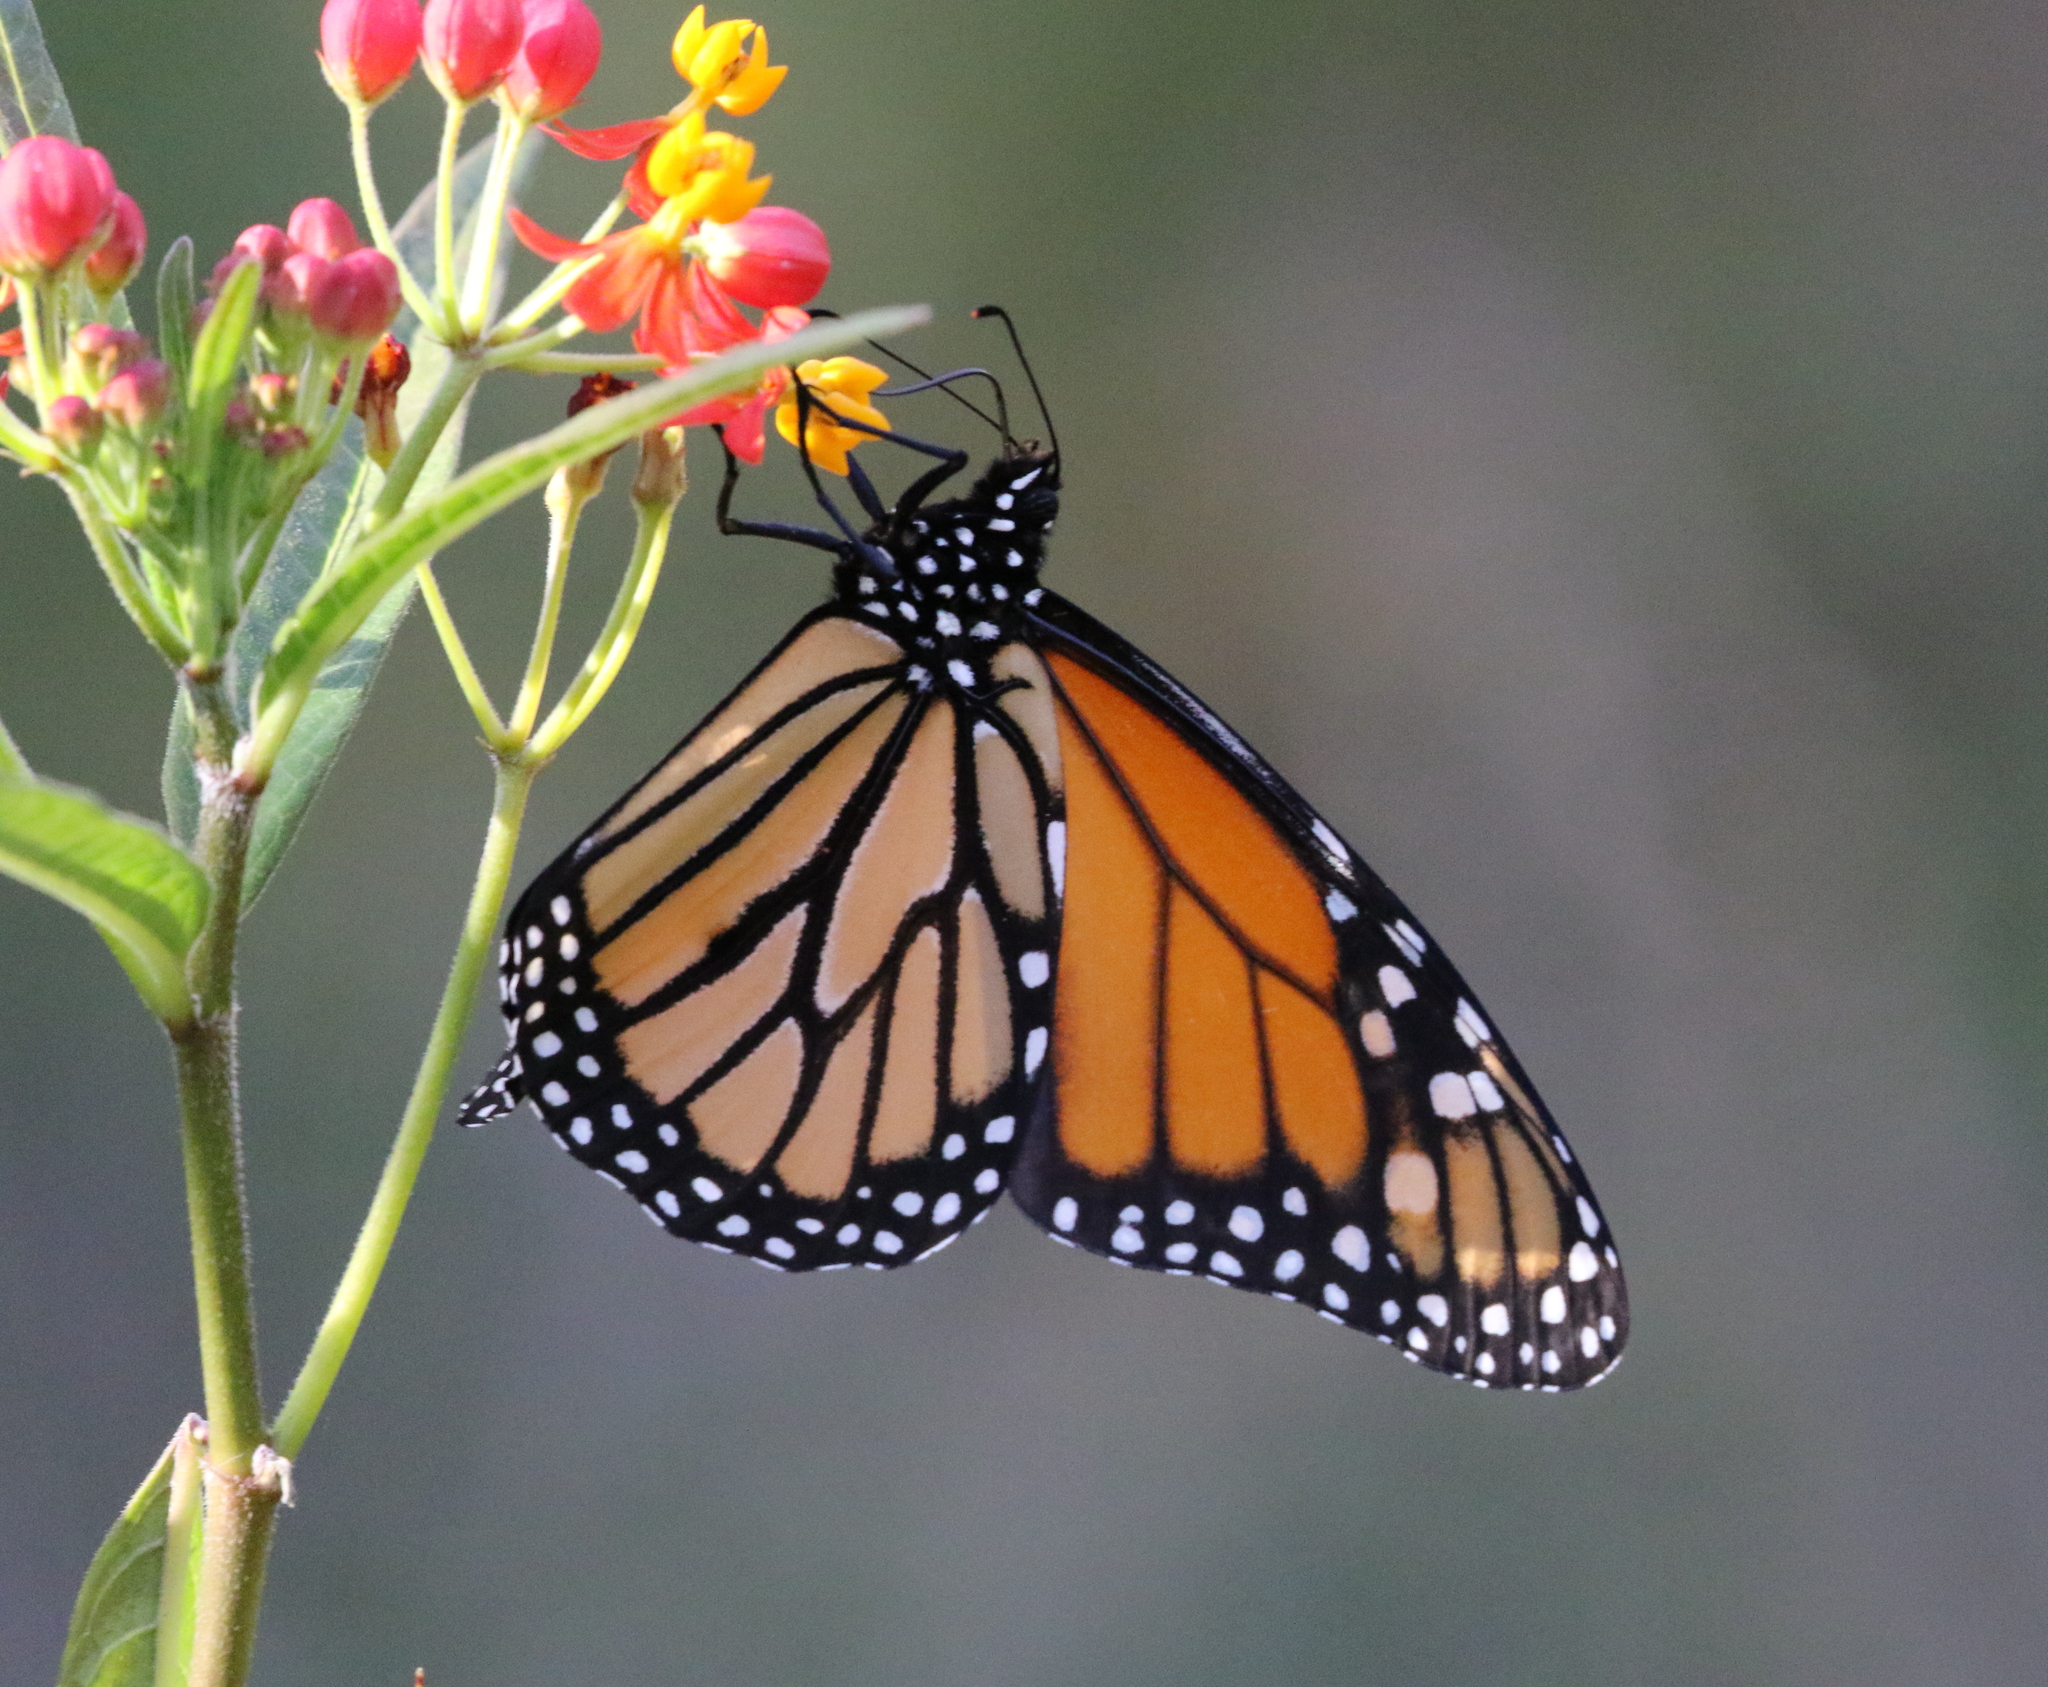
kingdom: Animalia
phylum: Arthropoda
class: Insecta
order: Lepidoptera
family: Nymphalidae
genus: Danaus
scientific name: Danaus plexippus
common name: Monarch
